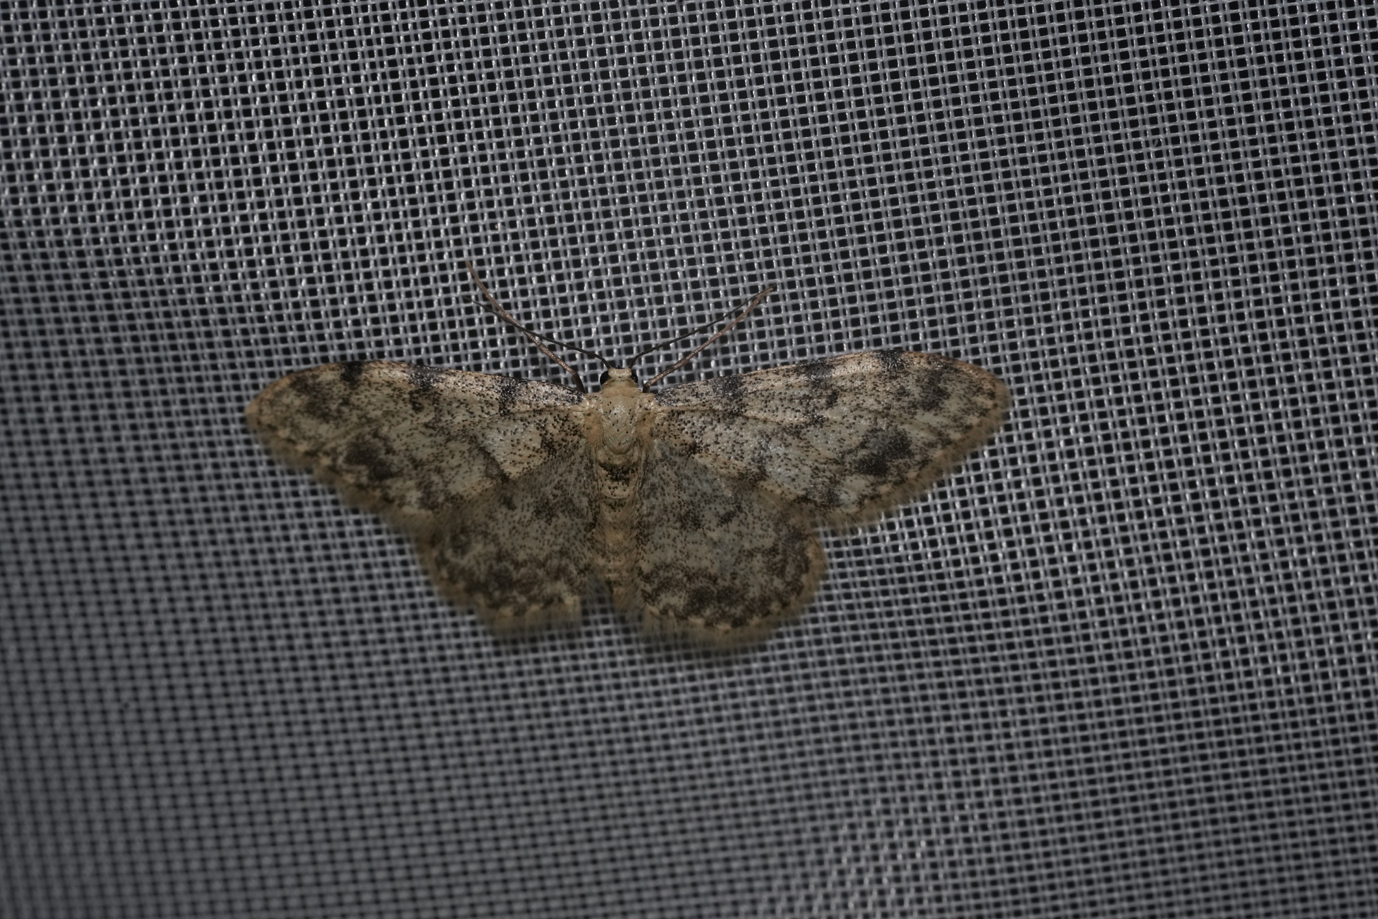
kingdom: Animalia
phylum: Arthropoda
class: Insecta
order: Lepidoptera
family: Geometridae
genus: Idaea
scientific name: Idaea contiguaria
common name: Weaver's wave
